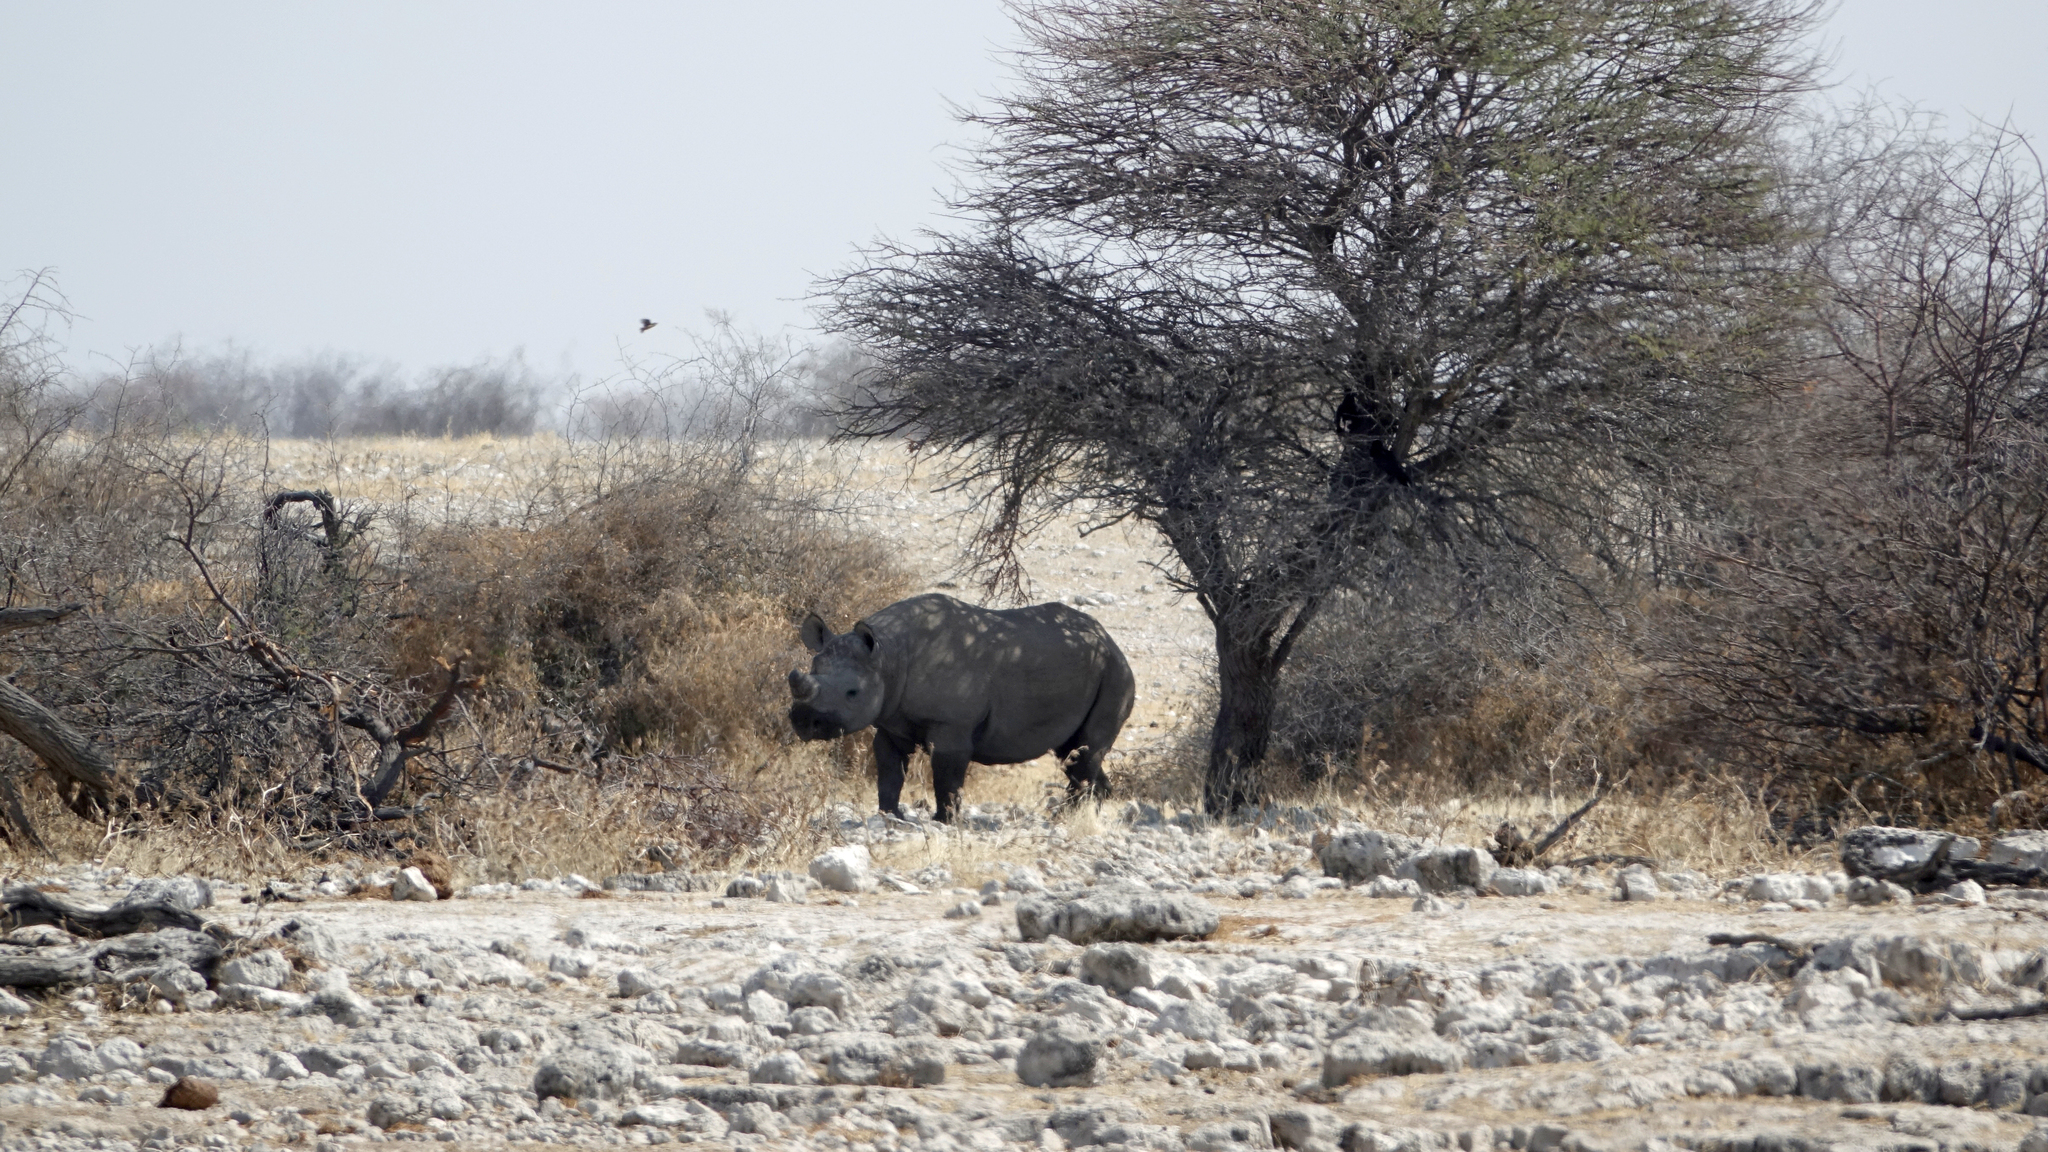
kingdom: Animalia
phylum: Chordata
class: Mammalia
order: Perissodactyla
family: Rhinocerotidae
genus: Diceros
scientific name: Diceros bicornis
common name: Black rhinoceros
